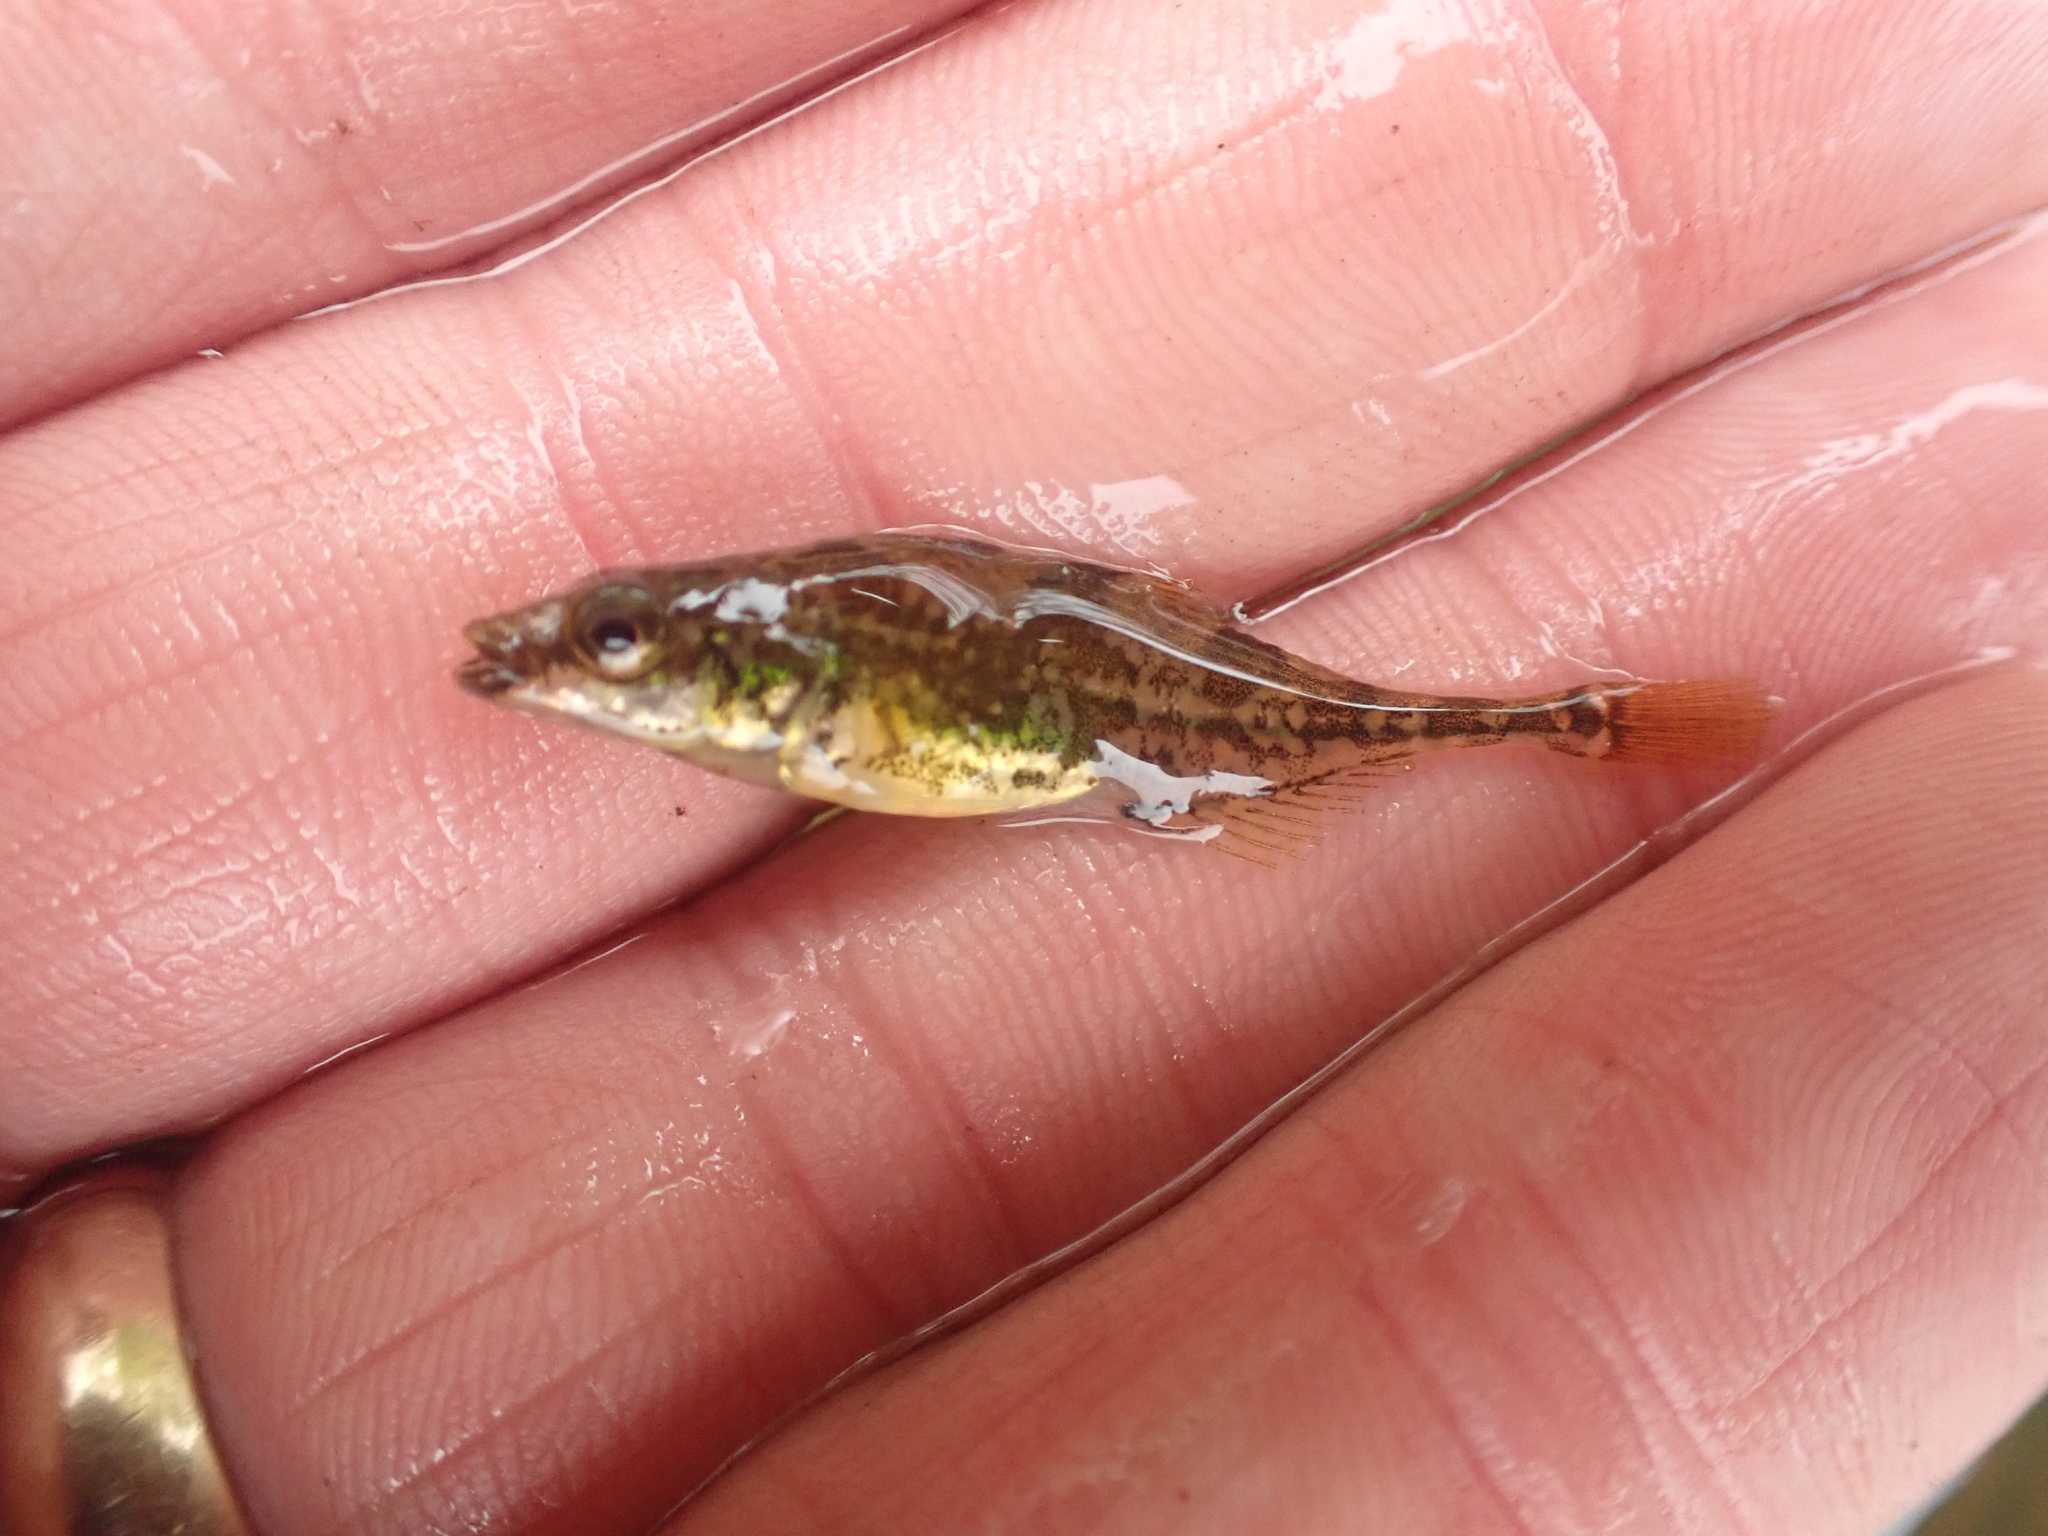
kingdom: Animalia
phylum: Chordata
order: Gasterosteiformes
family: Gasterosteidae
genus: Apeltes
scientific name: Apeltes quadracus
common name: Fourspine stickleback
